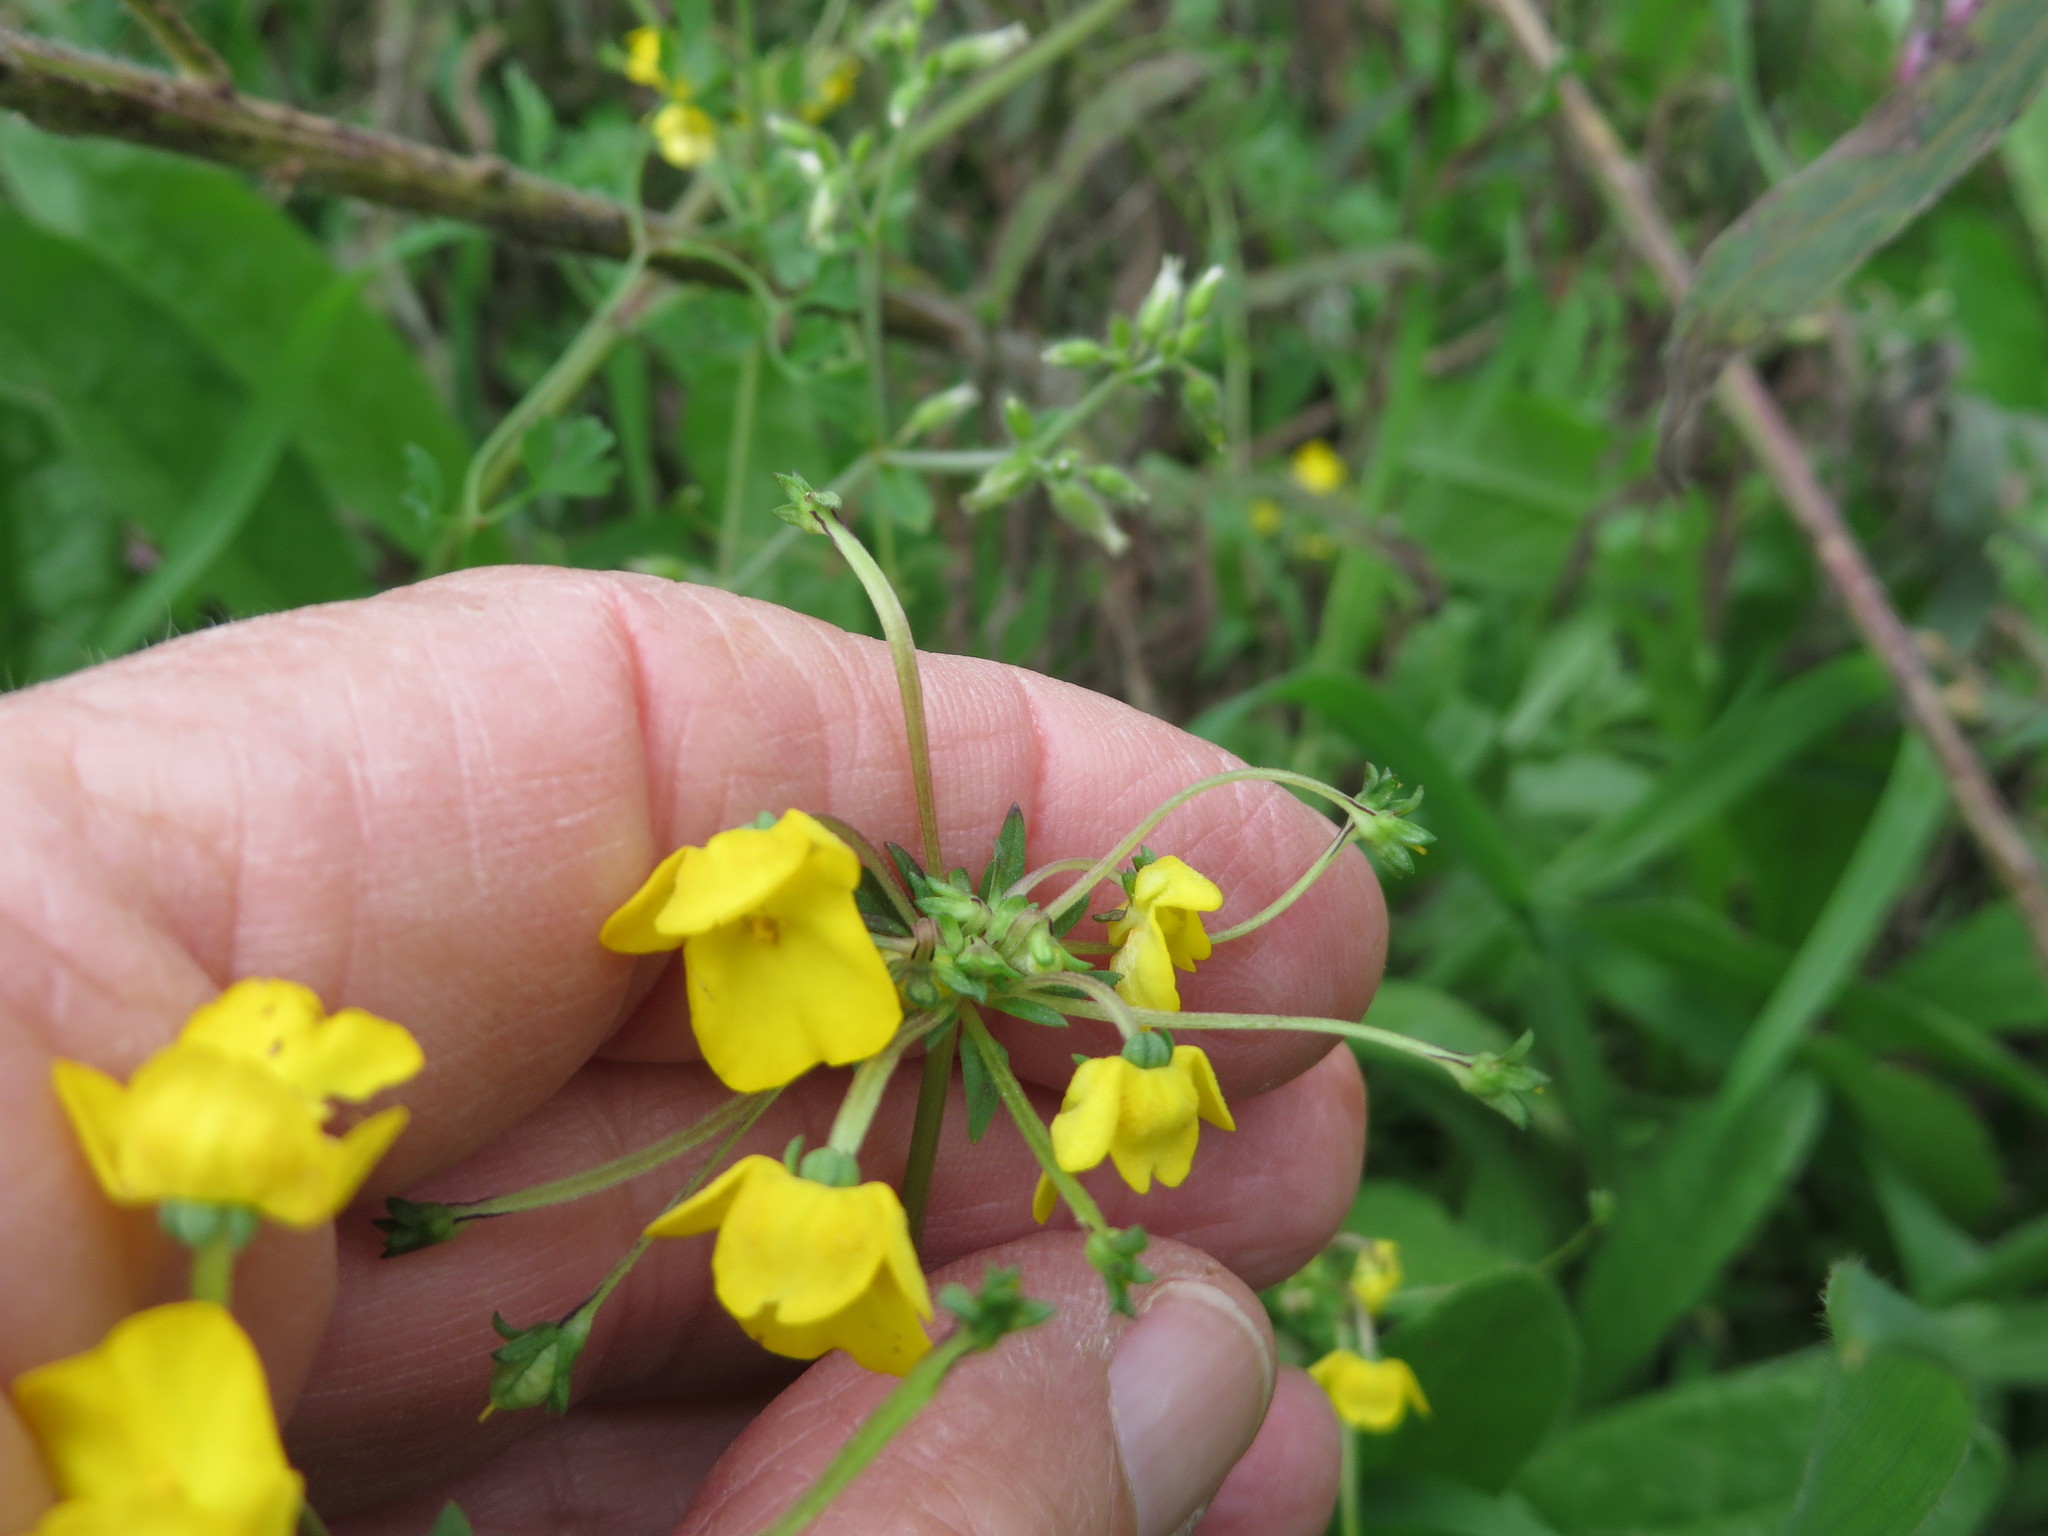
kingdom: Plantae
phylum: Tracheophyta
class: Magnoliopsida
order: Lamiales
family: Scrophulariaceae
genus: Hemimeris
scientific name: Hemimeris racemosa
